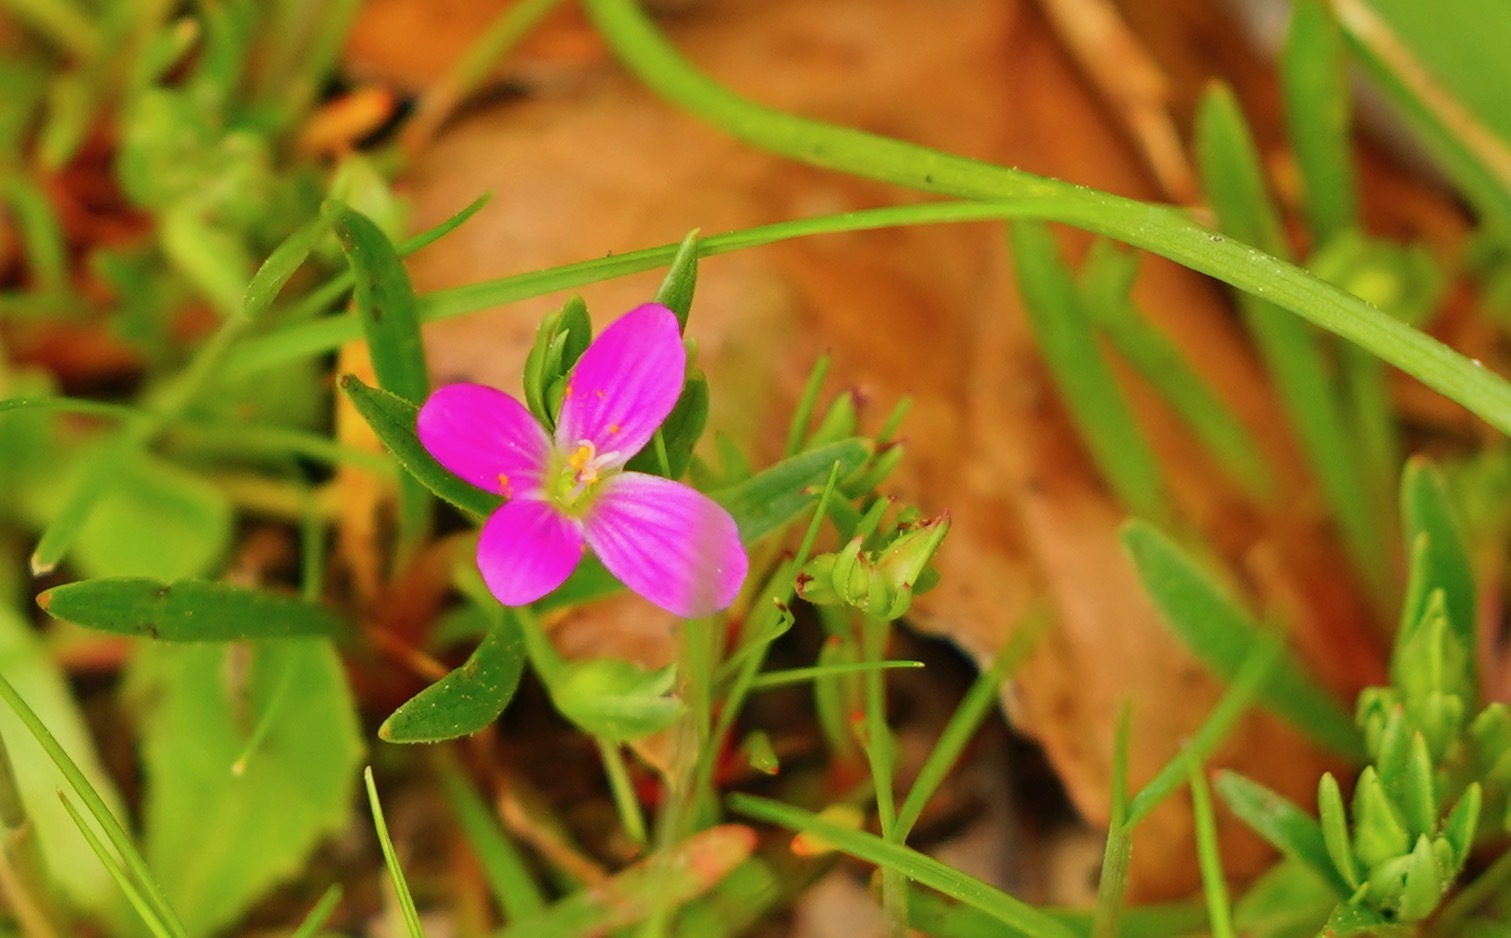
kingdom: Plantae
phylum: Tracheophyta
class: Magnoliopsida
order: Caryophyllales
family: Montiaceae
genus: Calandrinia
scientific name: Calandrinia menziesii
